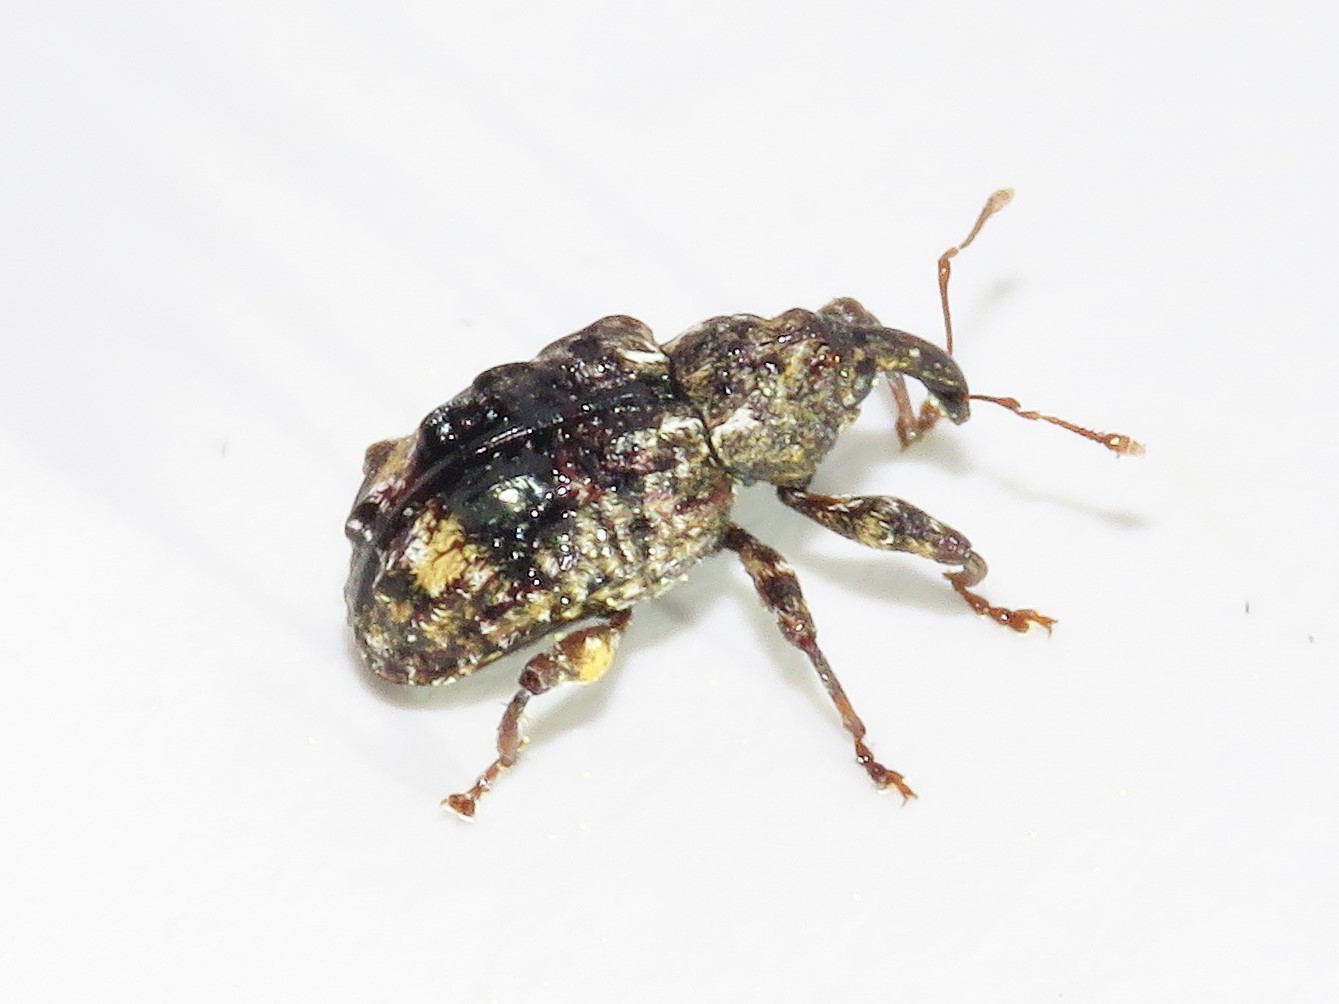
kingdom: Animalia
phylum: Arthropoda
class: Insecta
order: Coleoptera
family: Curculionidae
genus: Conotrachelus
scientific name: Conotrachelus nenuphar
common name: Plum curculio
